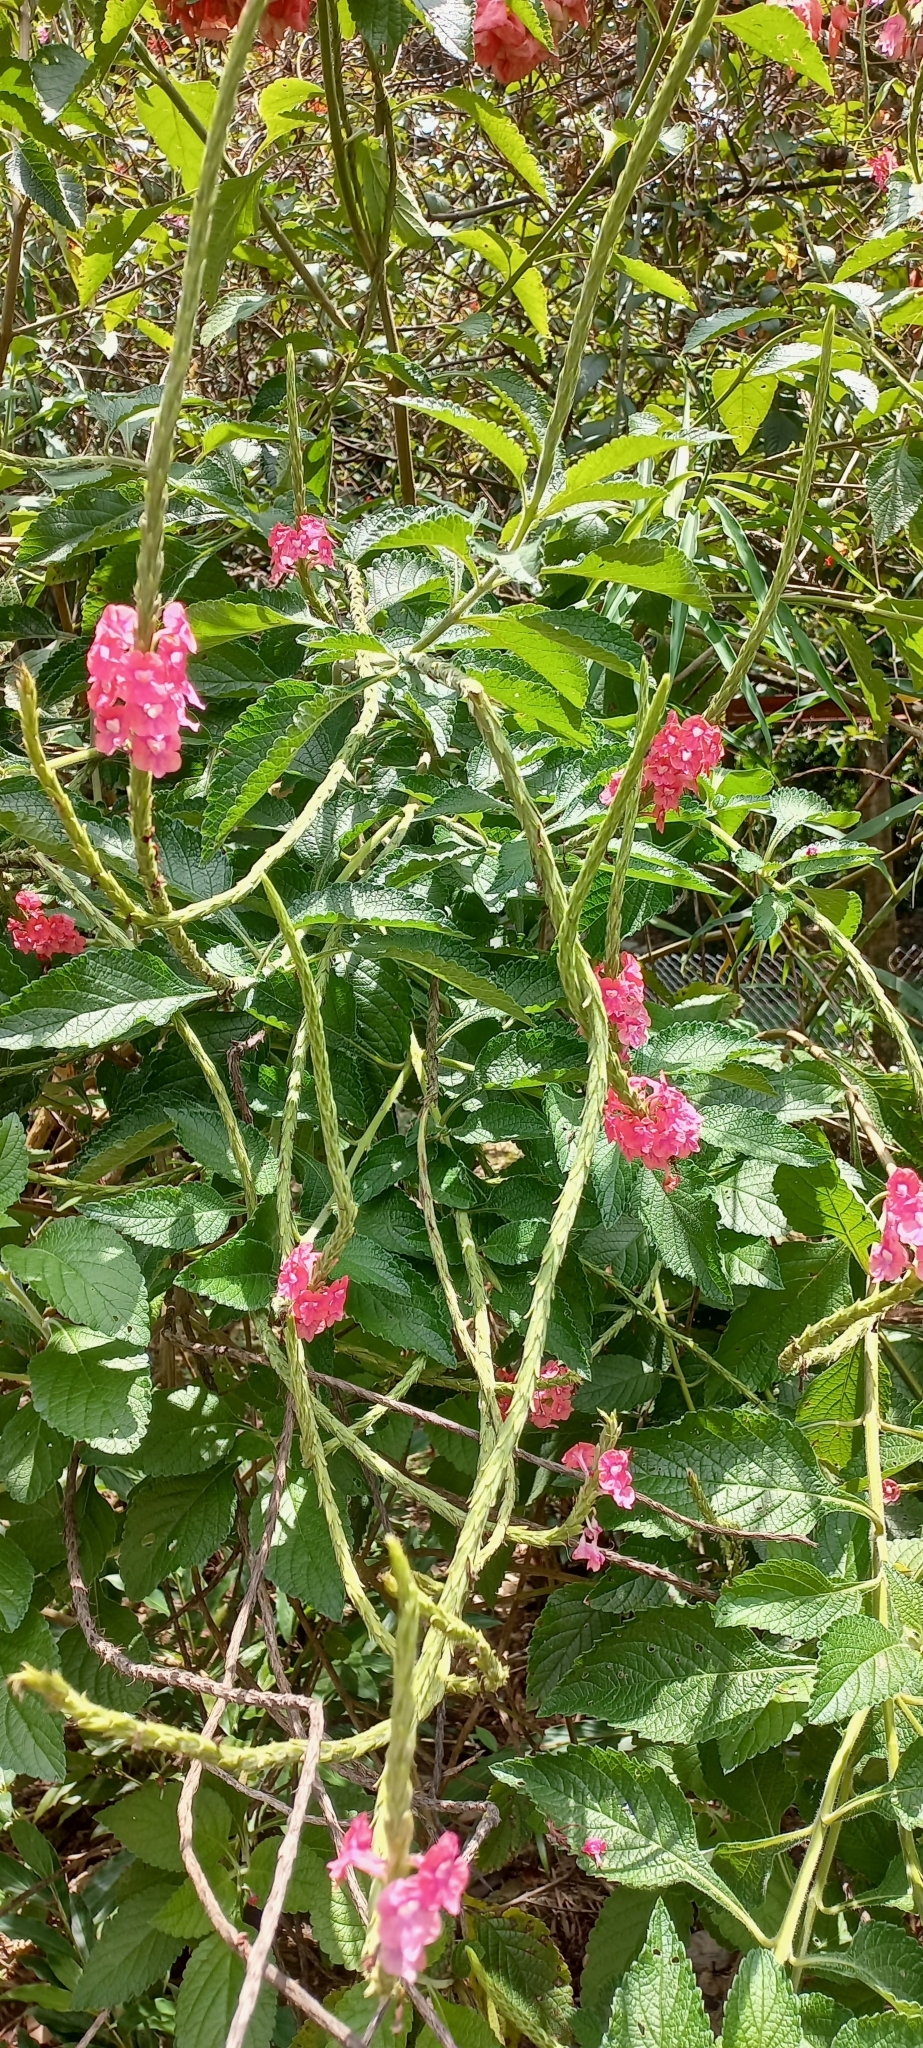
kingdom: Plantae
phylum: Tracheophyta
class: Magnoliopsida
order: Lamiales
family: Verbenaceae
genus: Stachytarpheta
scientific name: Stachytarpheta mutabilis
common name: Changeable velvetberry
